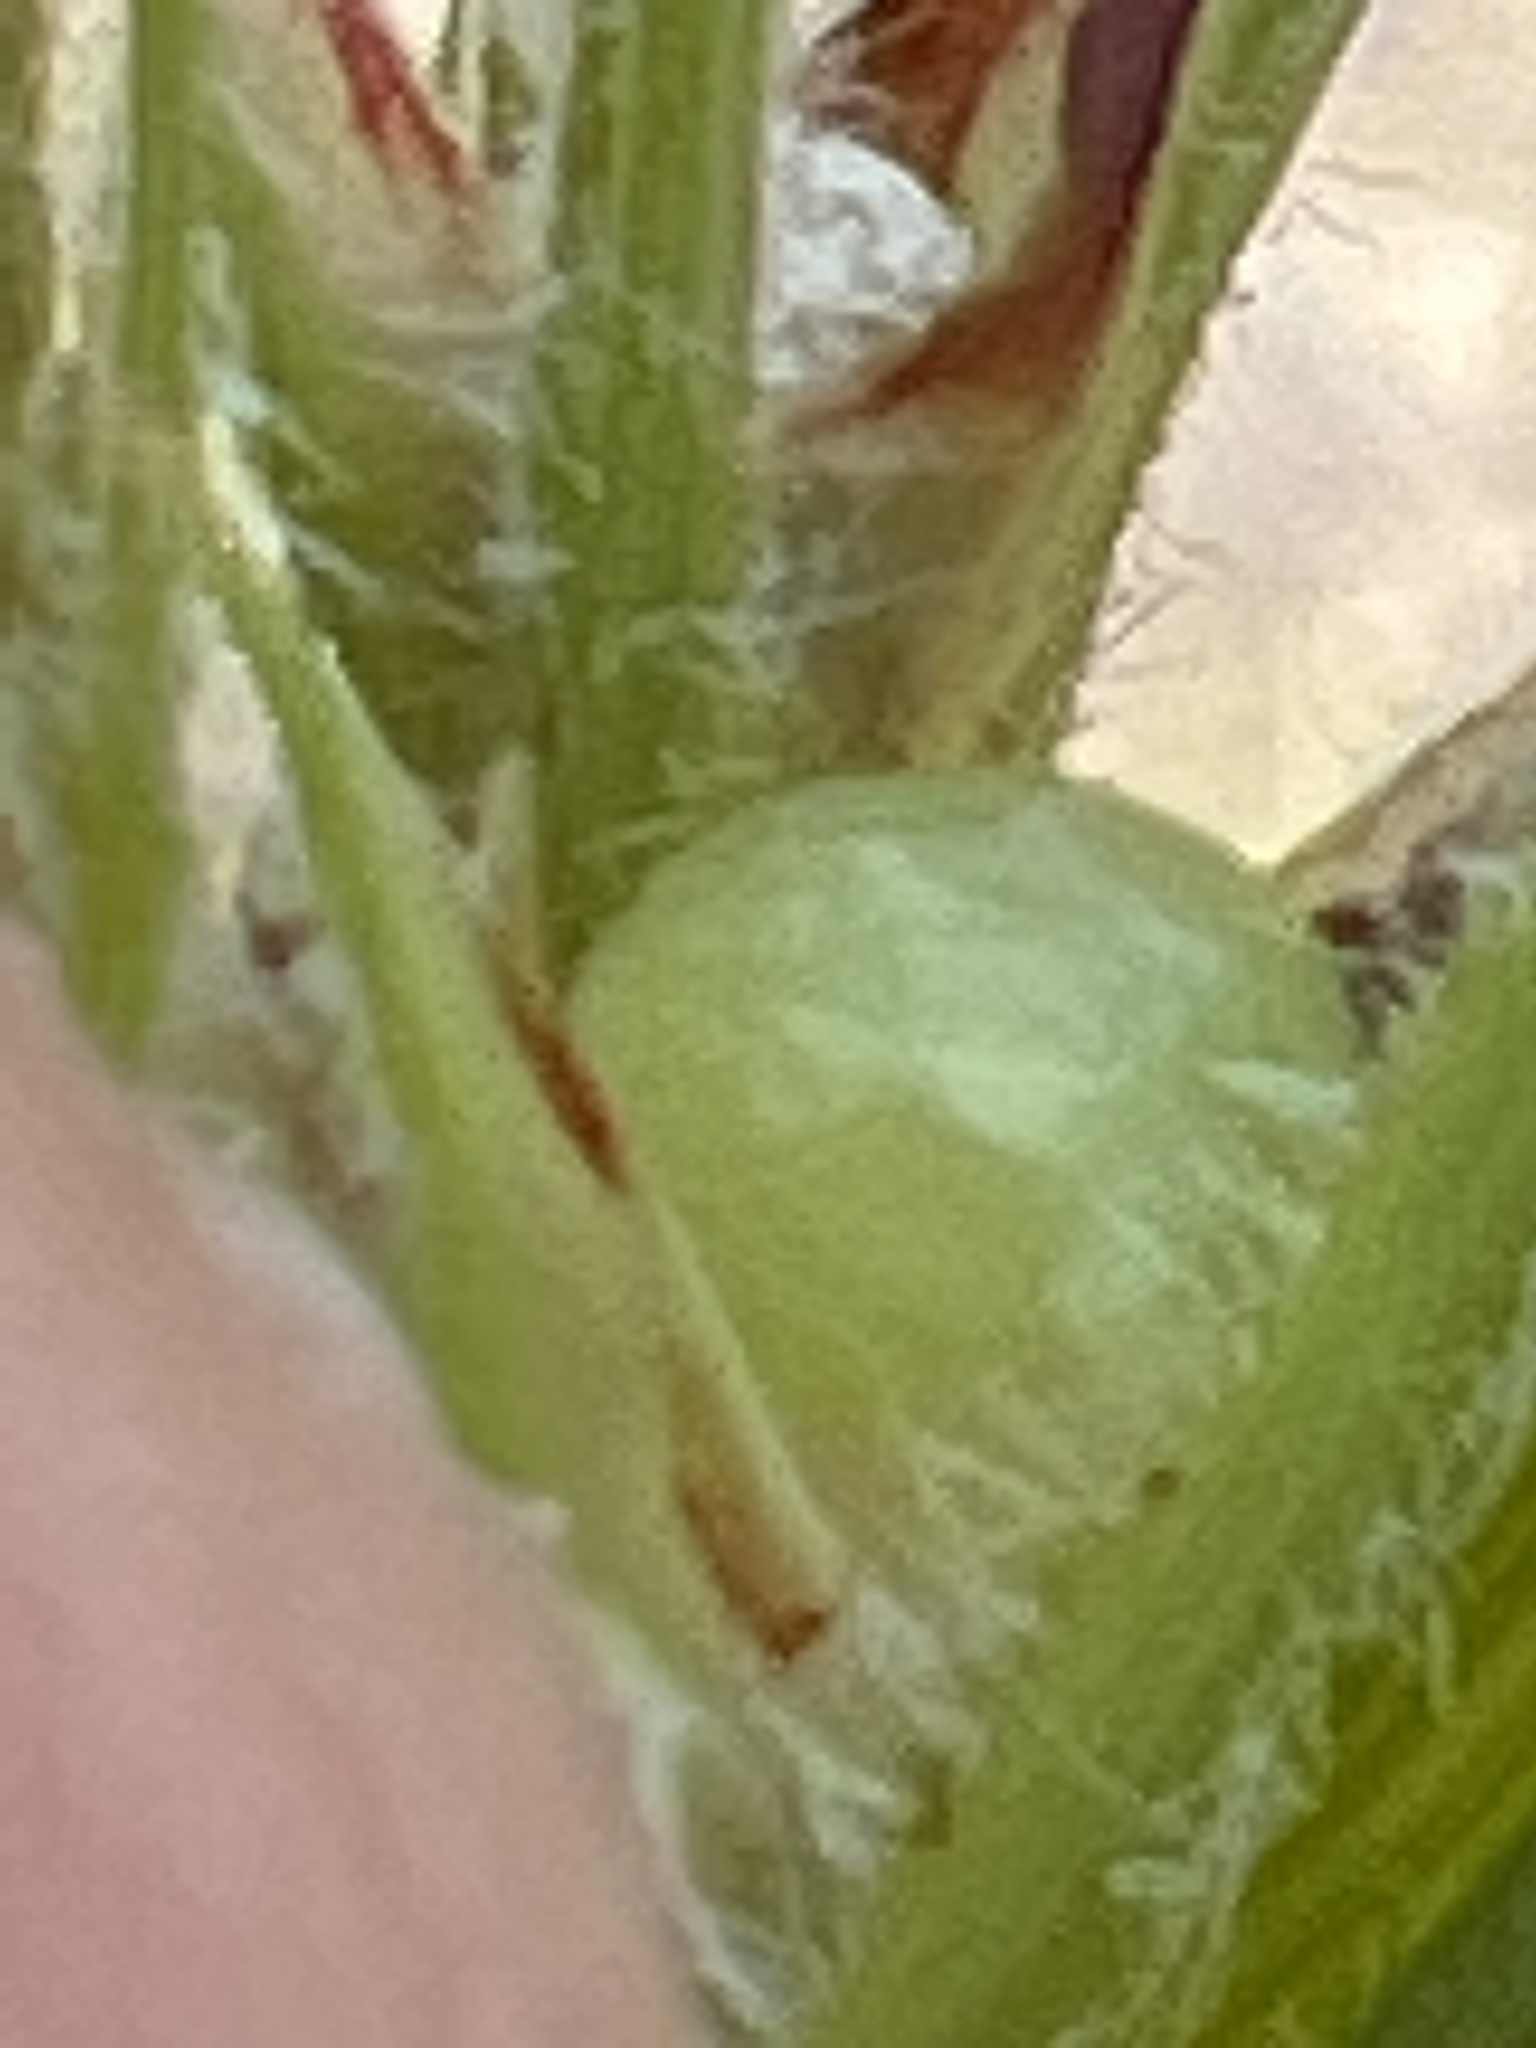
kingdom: Plantae
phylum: Tracheophyta
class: Liliopsida
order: Poales
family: Cyperaceae
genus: Scleria
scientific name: Scleria bellii
